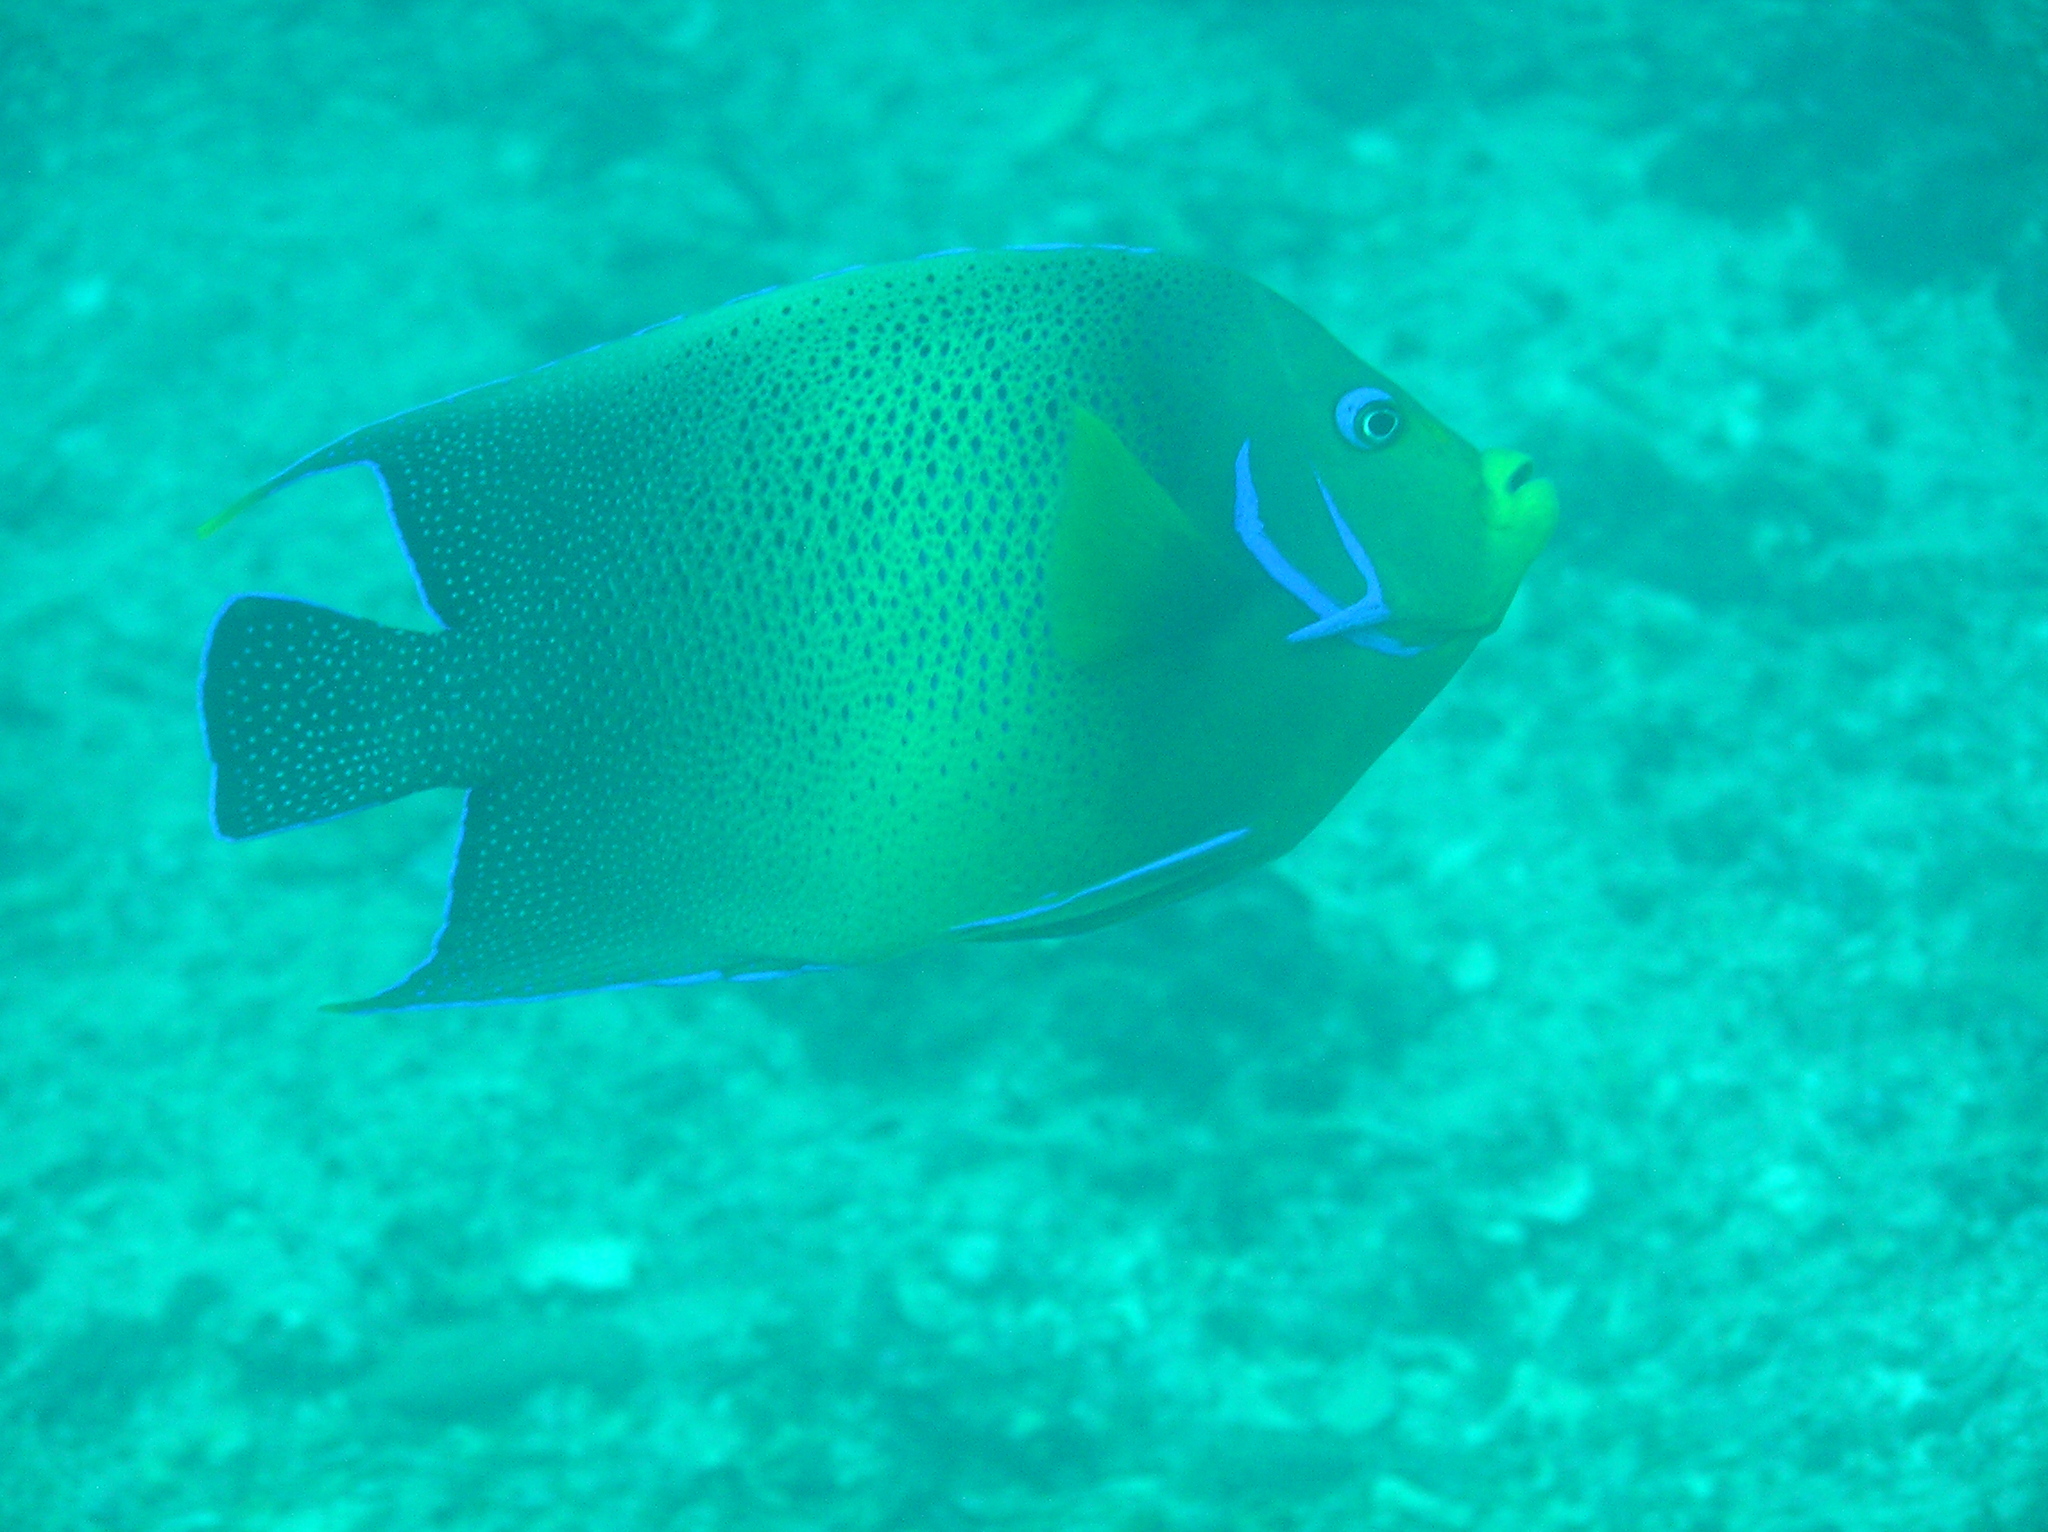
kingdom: Animalia
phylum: Chordata
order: Perciformes
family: Pomacanthidae
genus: Pomacanthus
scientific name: Pomacanthus semicirculatus
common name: Semicircle angelfish
